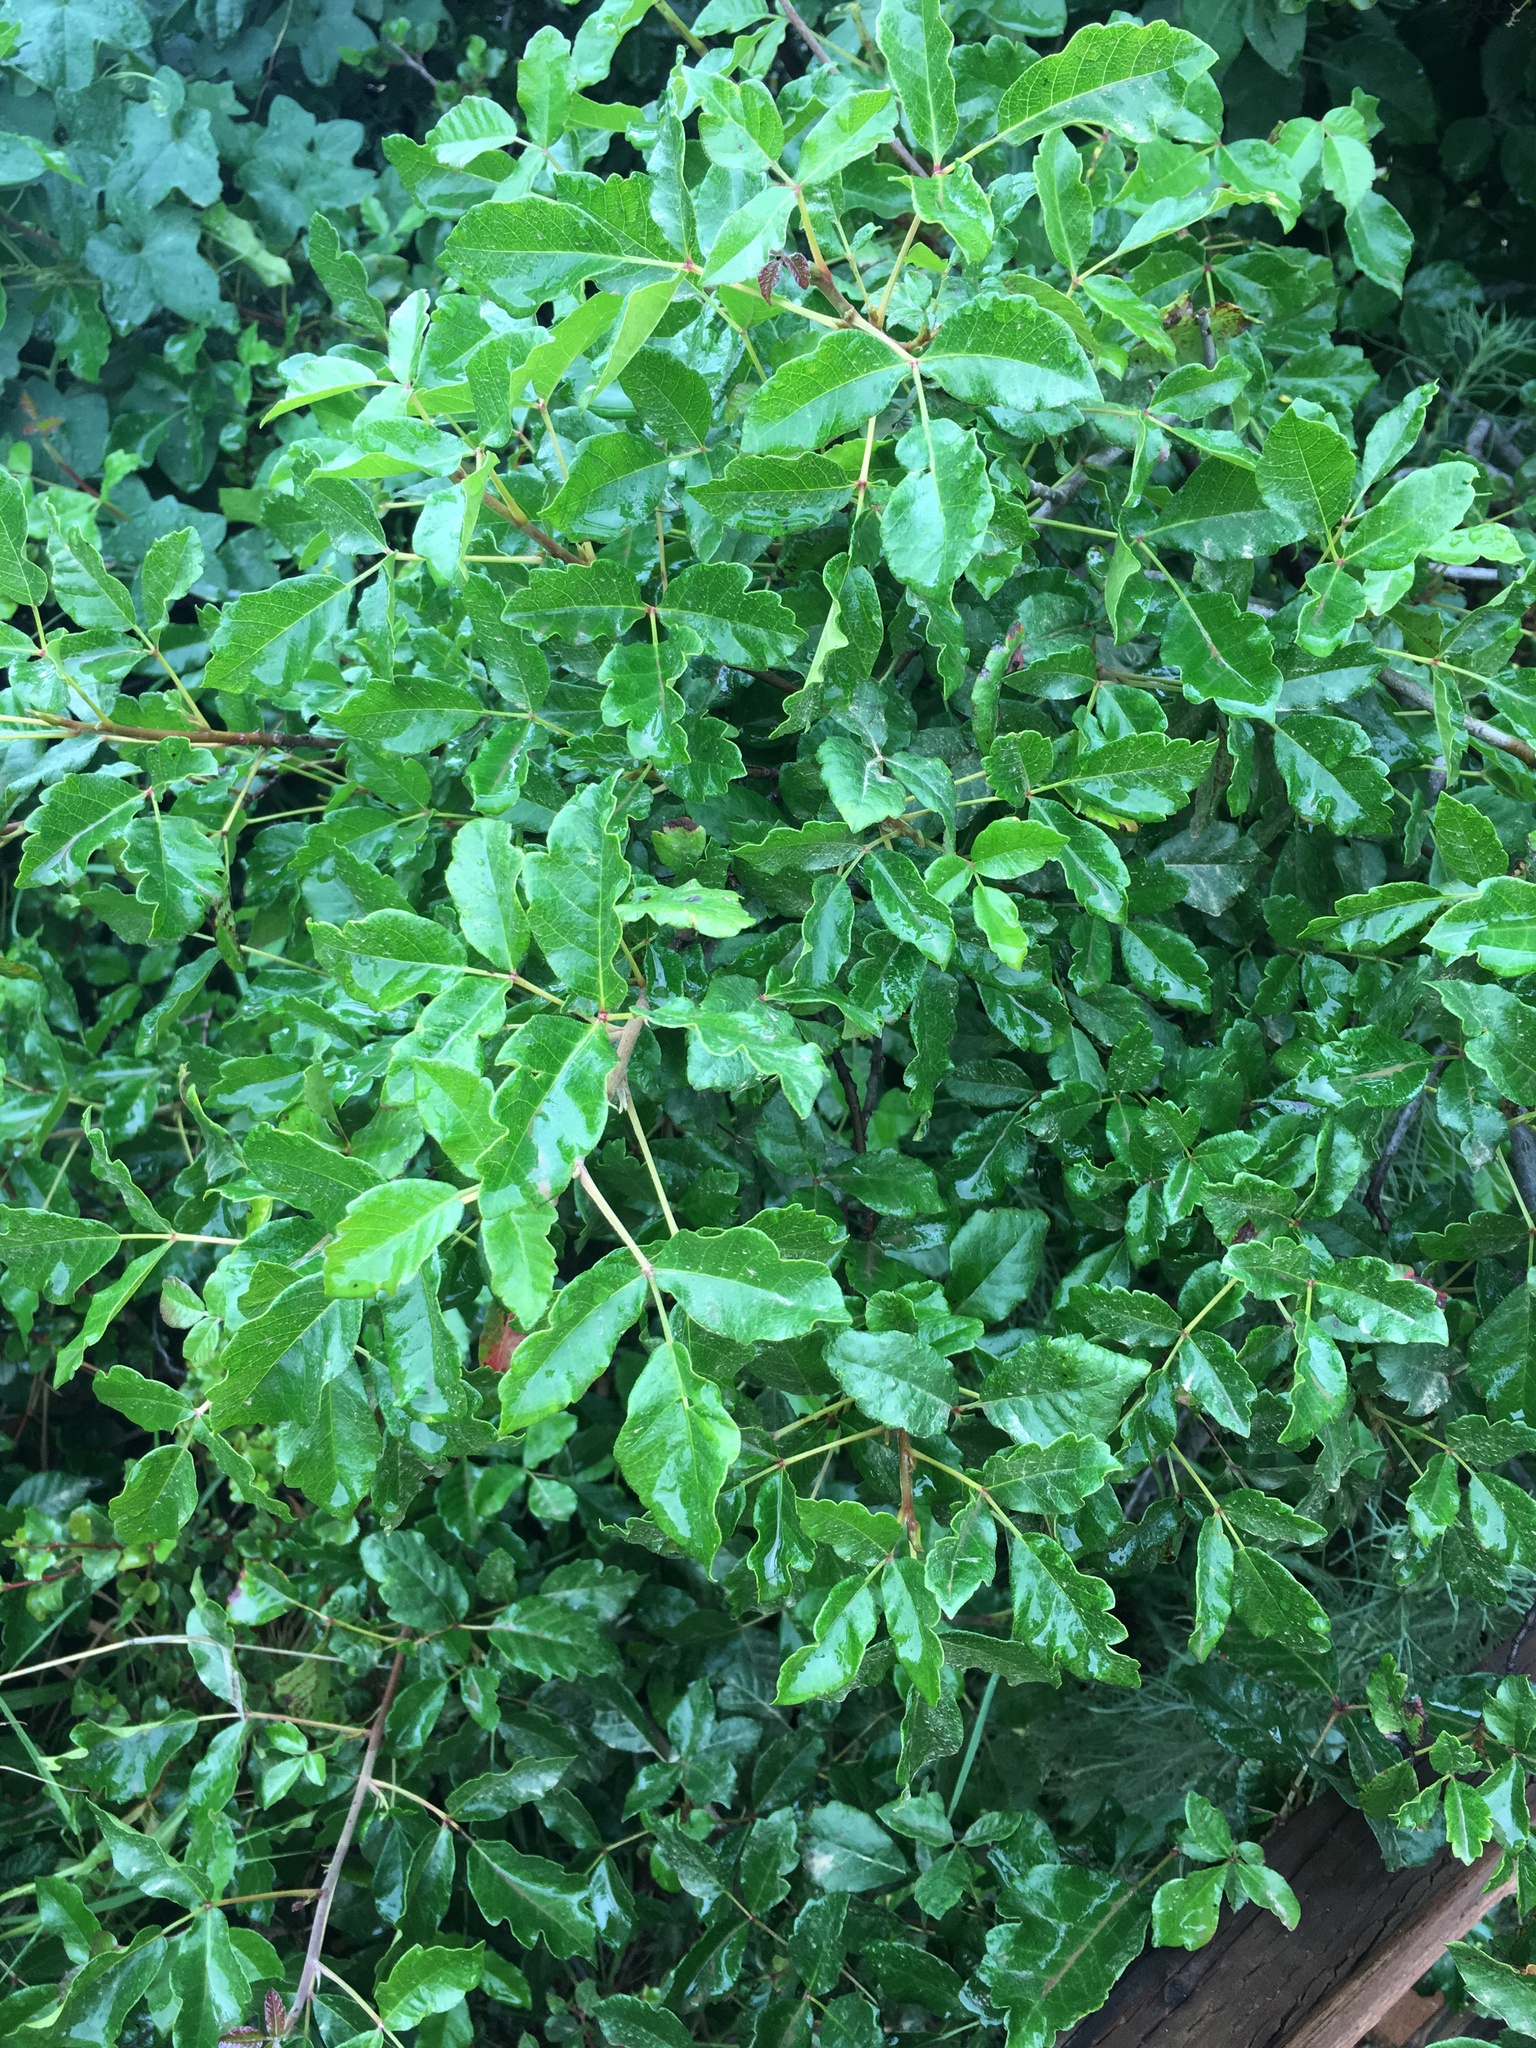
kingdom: Plantae
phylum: Tracheophyta
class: Magnoliopsida
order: Sapindales
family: Anacardiaceae
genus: Toxicodendron
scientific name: Toxicodendron diversilobum
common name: Pacific poison-oak
